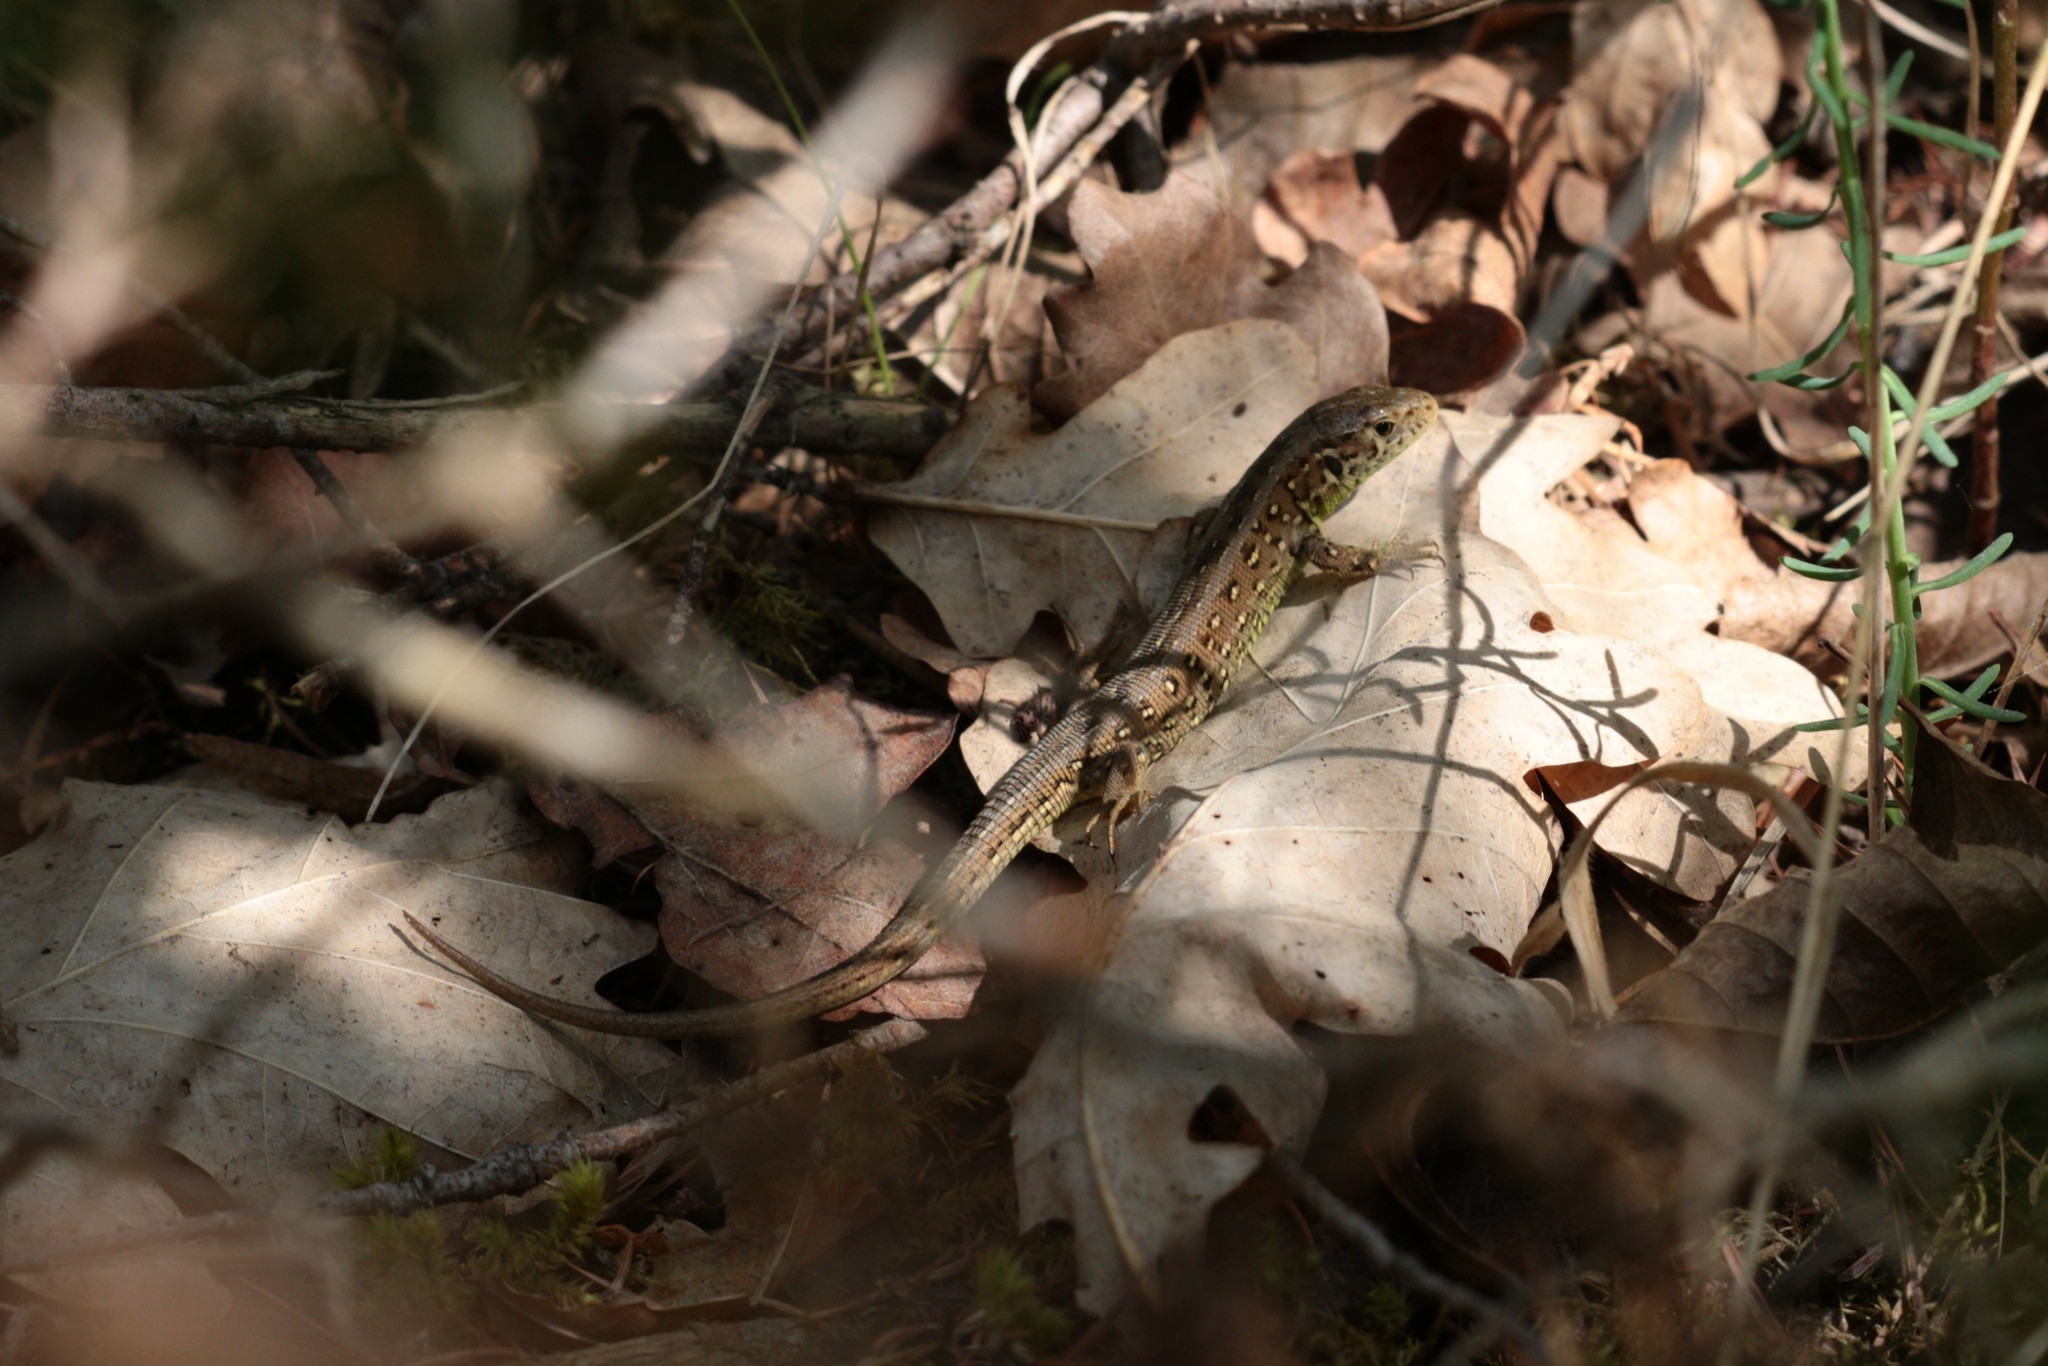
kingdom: Animalia
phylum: Chordata
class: Squamata
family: Lacertidae
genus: Lacerta
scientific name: Lacerta agilis
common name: Sand lizard
